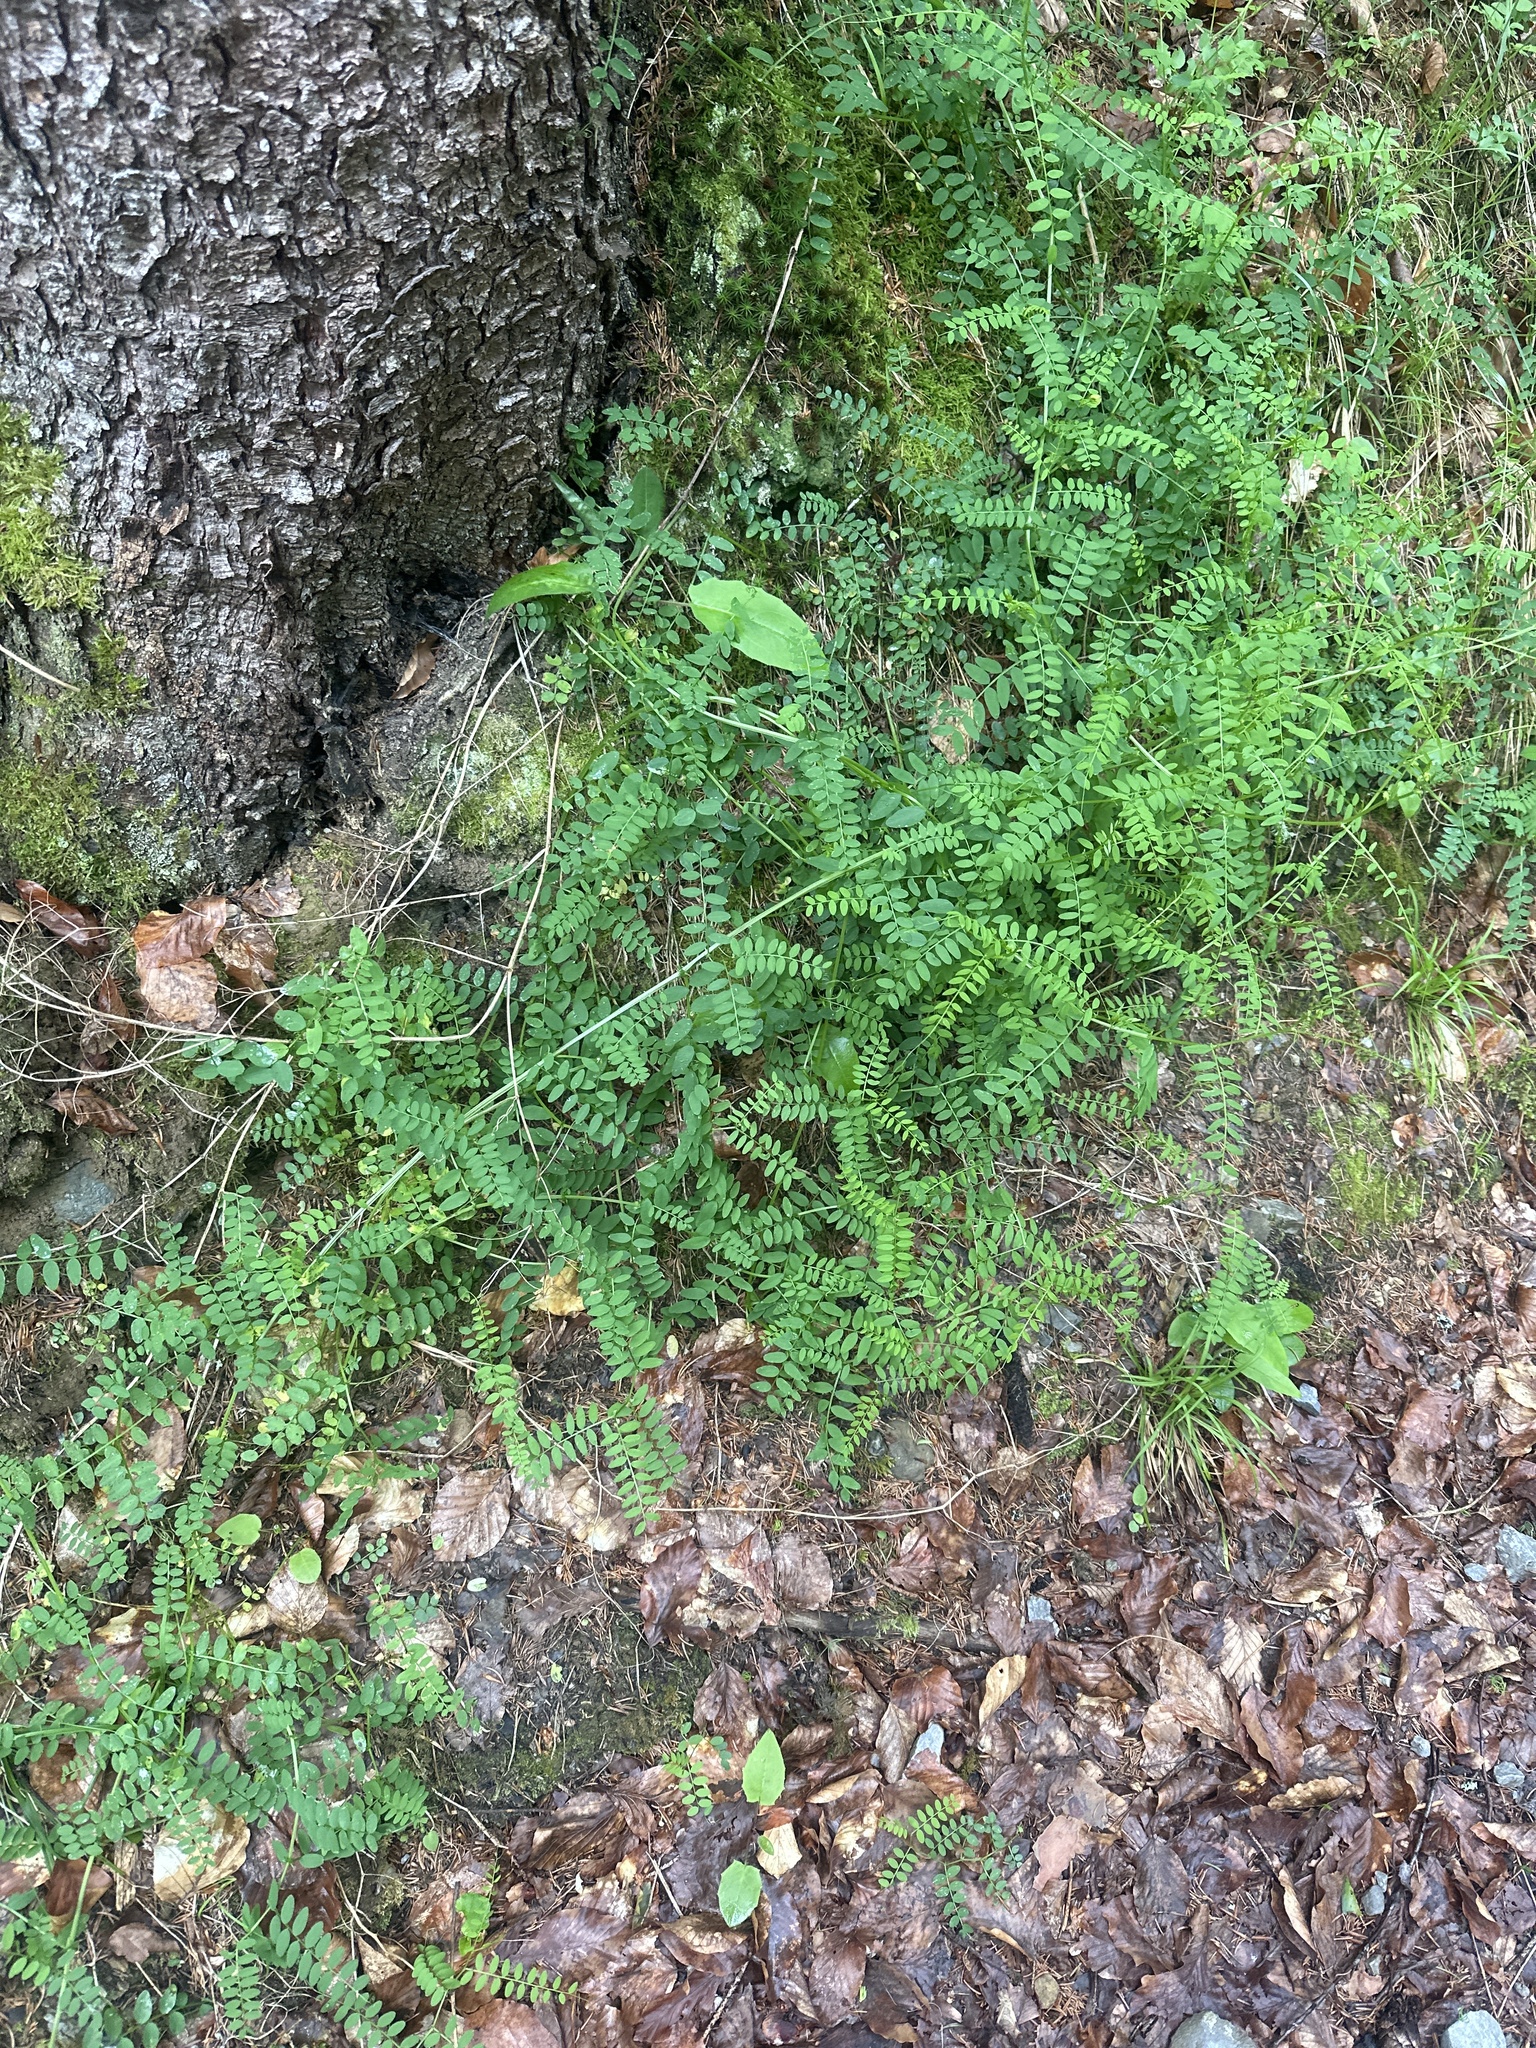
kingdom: Plantae
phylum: Tracheophyta
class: Magnoliopsida
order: Fabales
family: Fabaceae
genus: Vicia
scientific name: Vicia sylvatica
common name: Wood vetch
